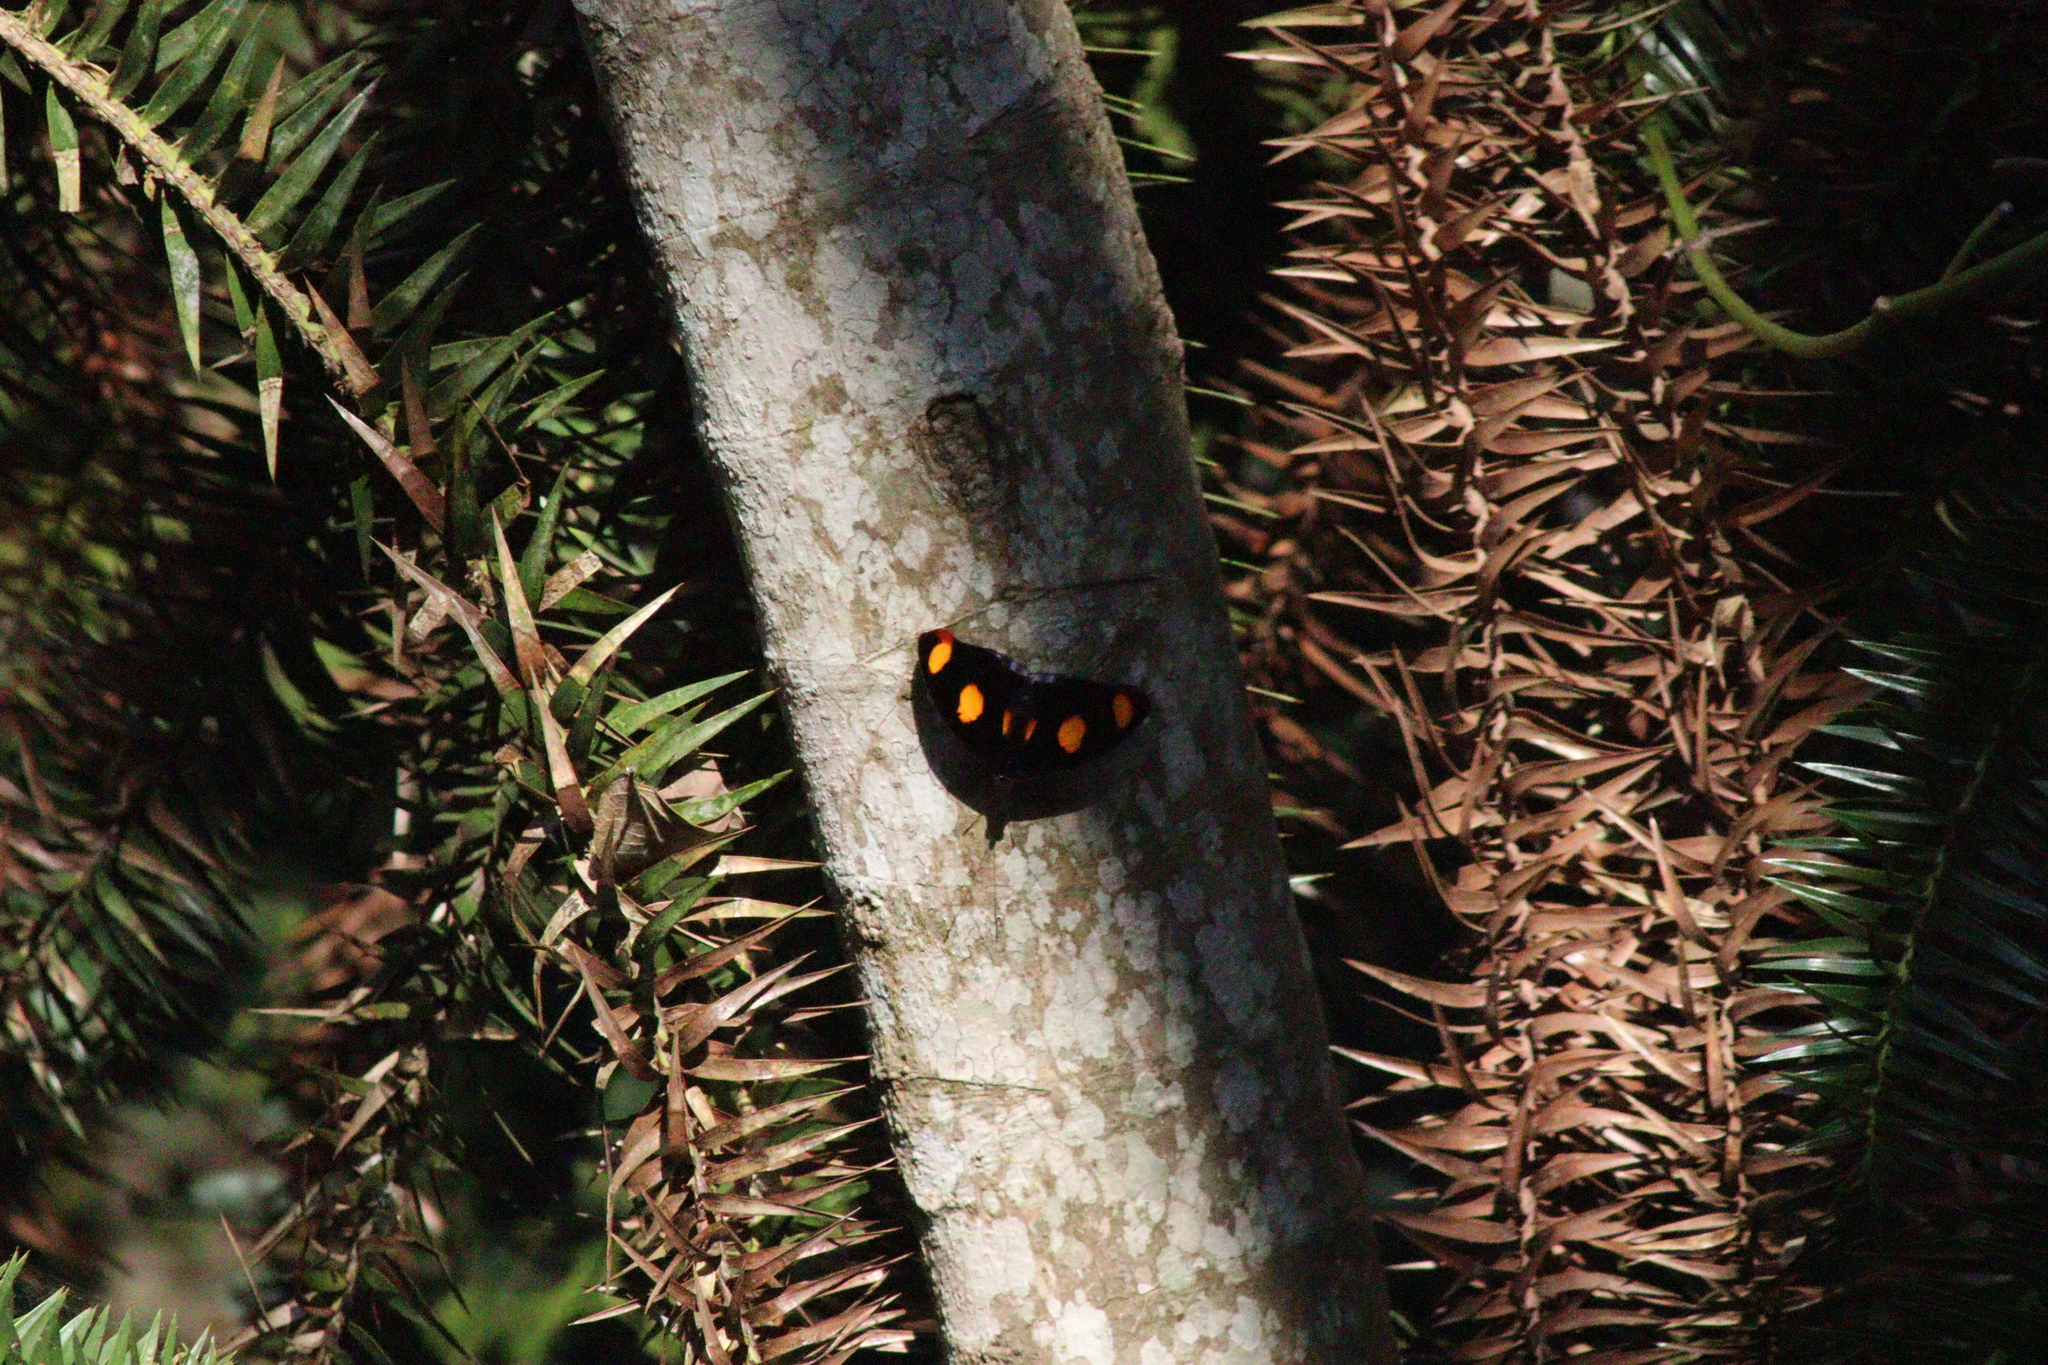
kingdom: Animalia
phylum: Arthropoda
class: Insecta
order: Lepidoptera
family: Nymphalidae
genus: Catonephele
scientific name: Catonephele numilia
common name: Blue-frosted banner
